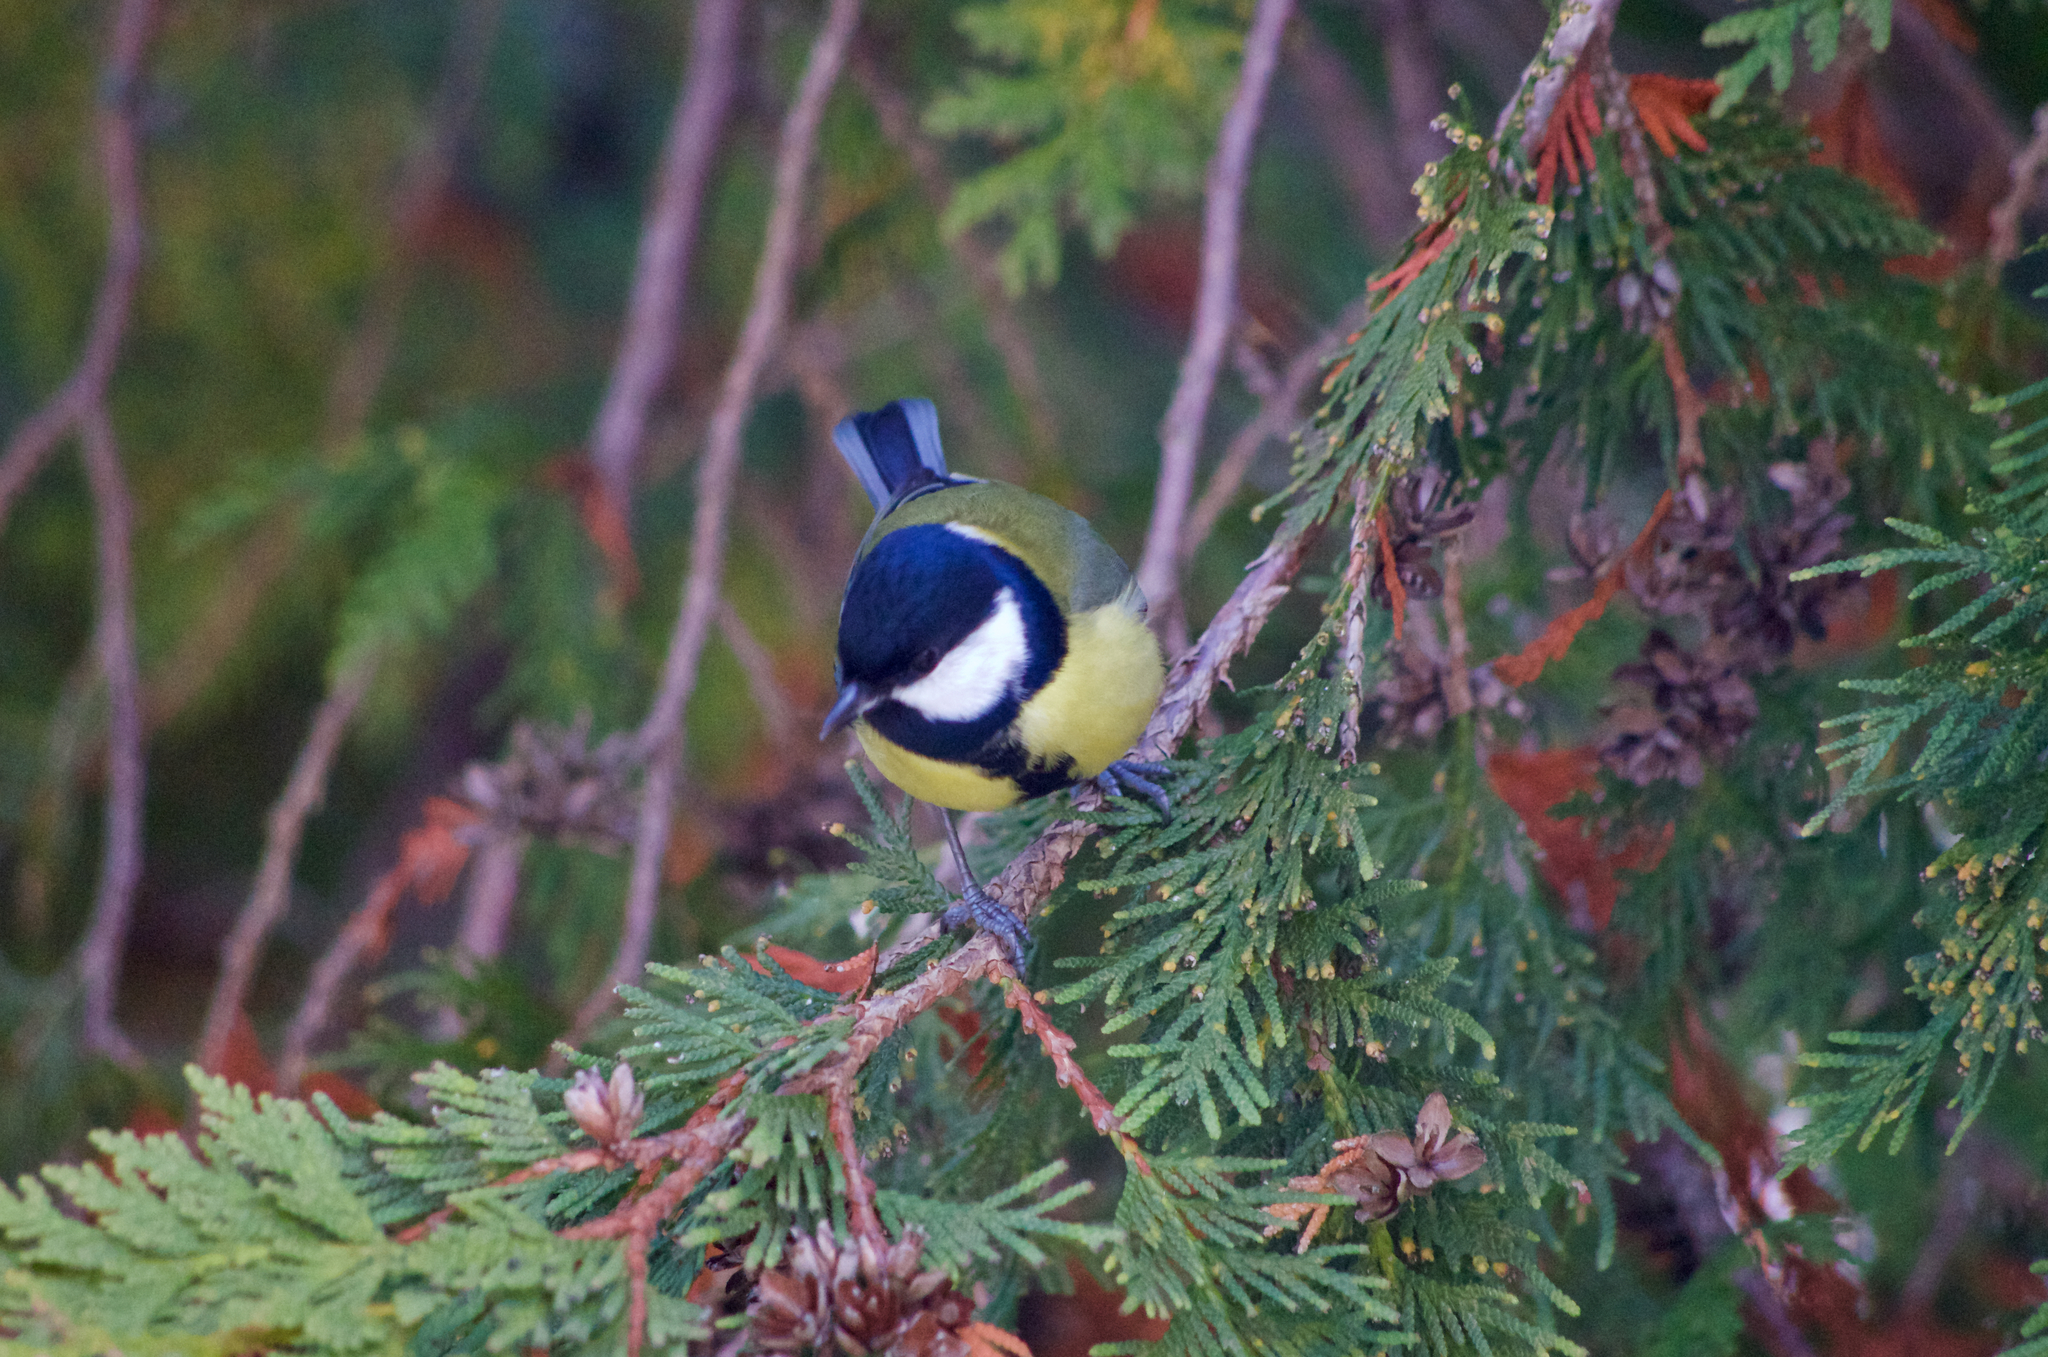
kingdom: Animalia
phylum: Chordata
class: Aves
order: Passeriformes
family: Paridae
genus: Parus
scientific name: Parus major
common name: Great tit
